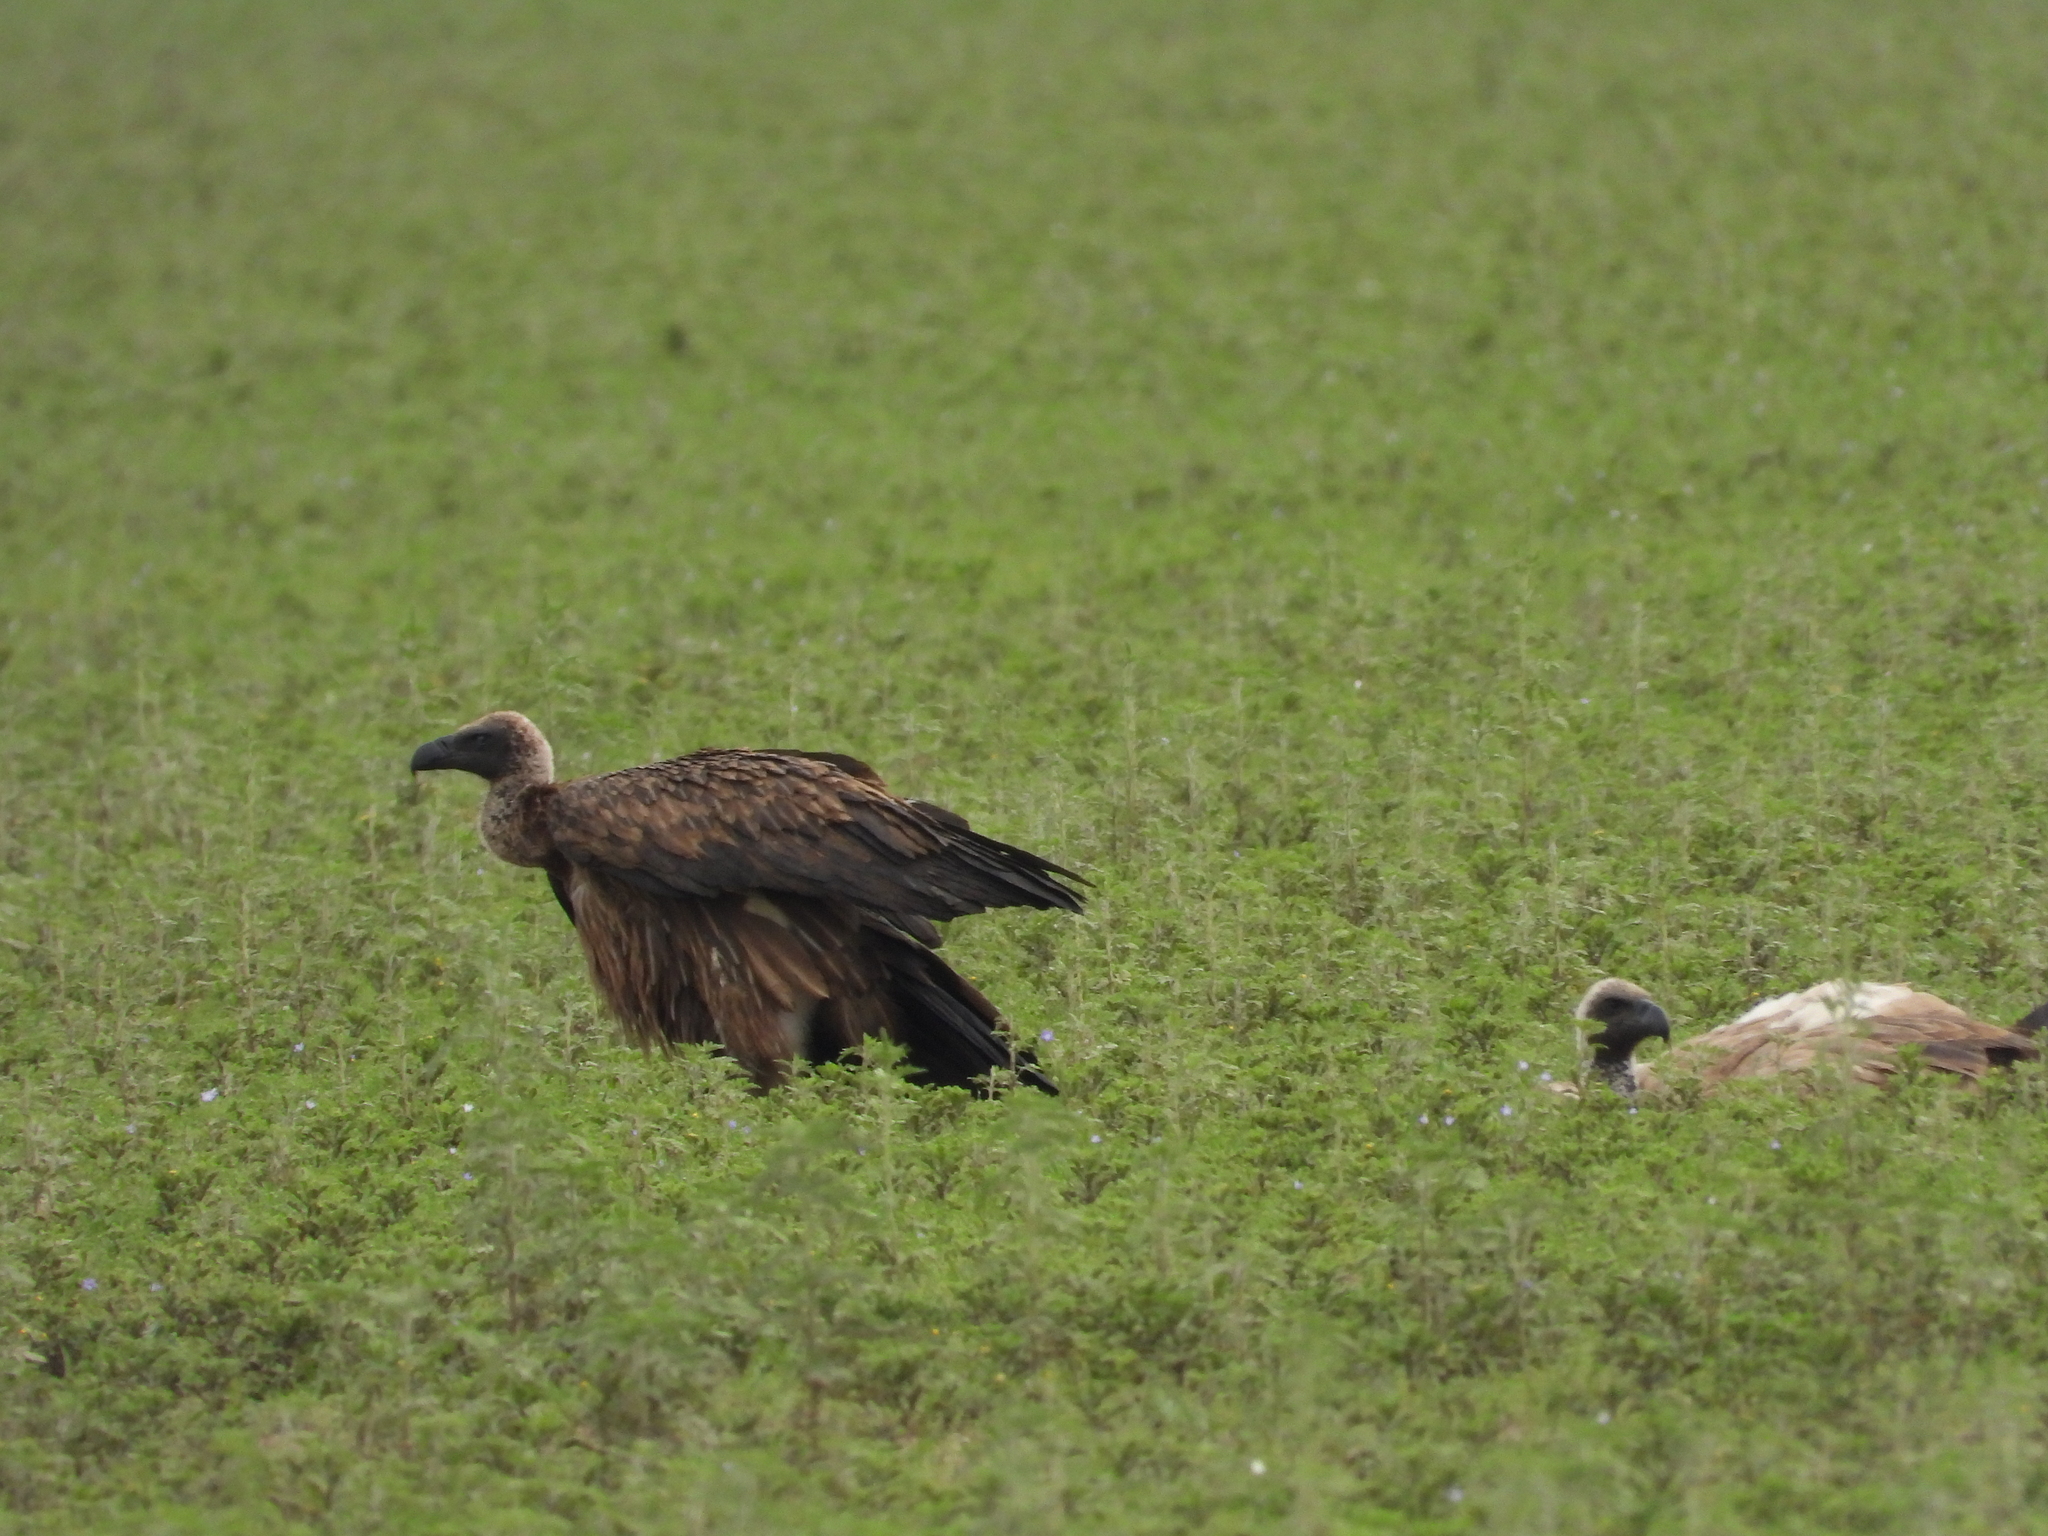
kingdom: Animalia
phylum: Chordata
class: Aves
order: Accipitriformes
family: Accipitridae
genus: Gyps
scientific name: Gyps africanus
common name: White-backed vulture
